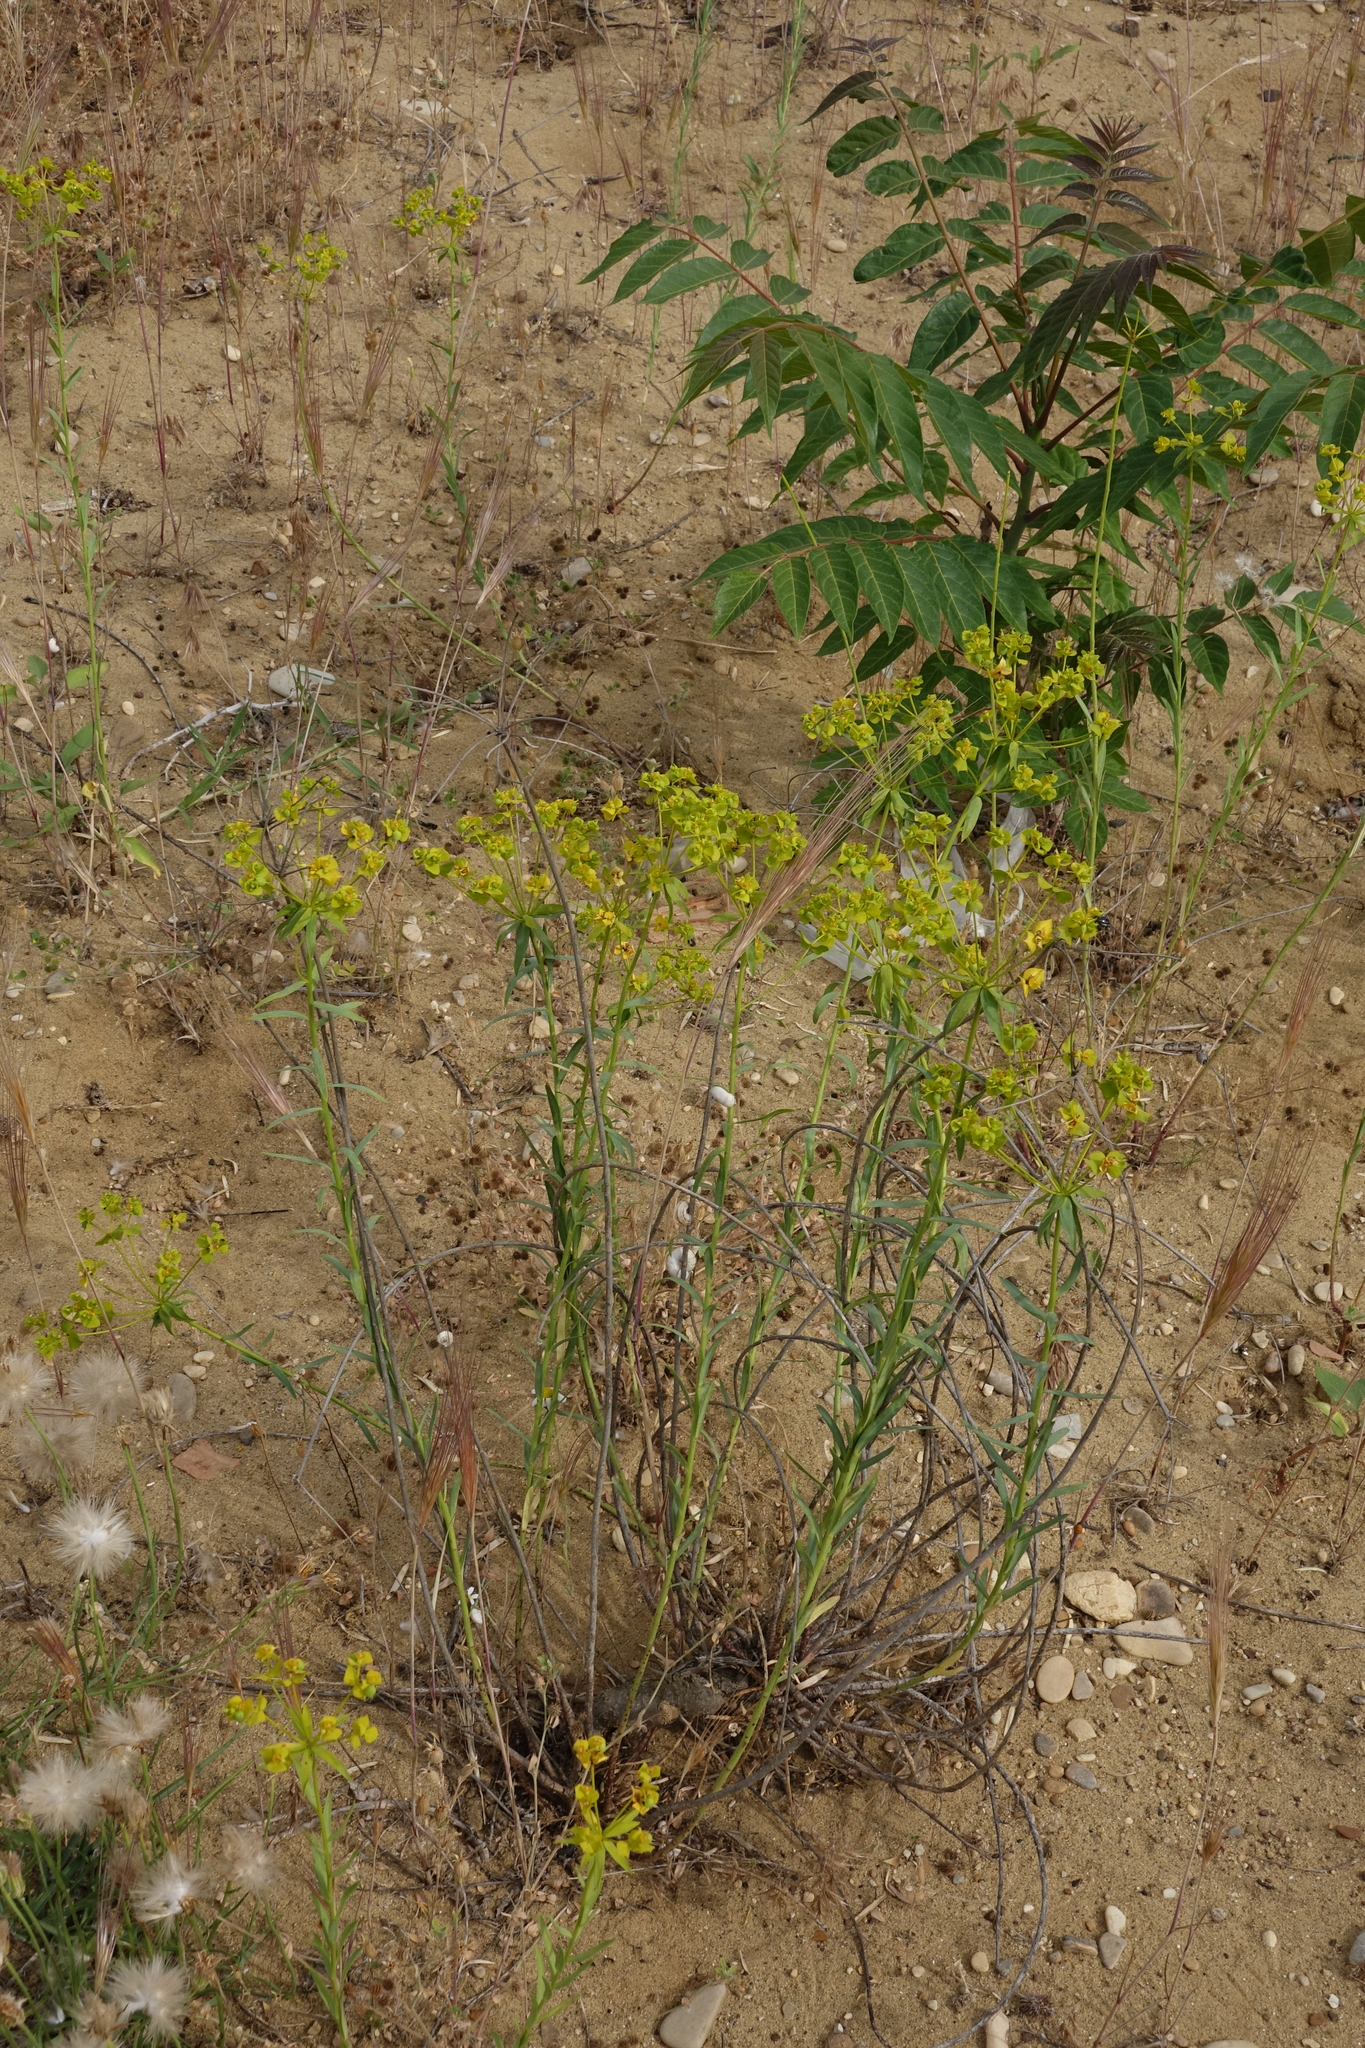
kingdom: Plantae
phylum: Tracheophyta
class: Magnoliopsida
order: Malpighiales
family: Euphorbiaceae
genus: Euphorbia
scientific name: Euphorbia seguieriana
